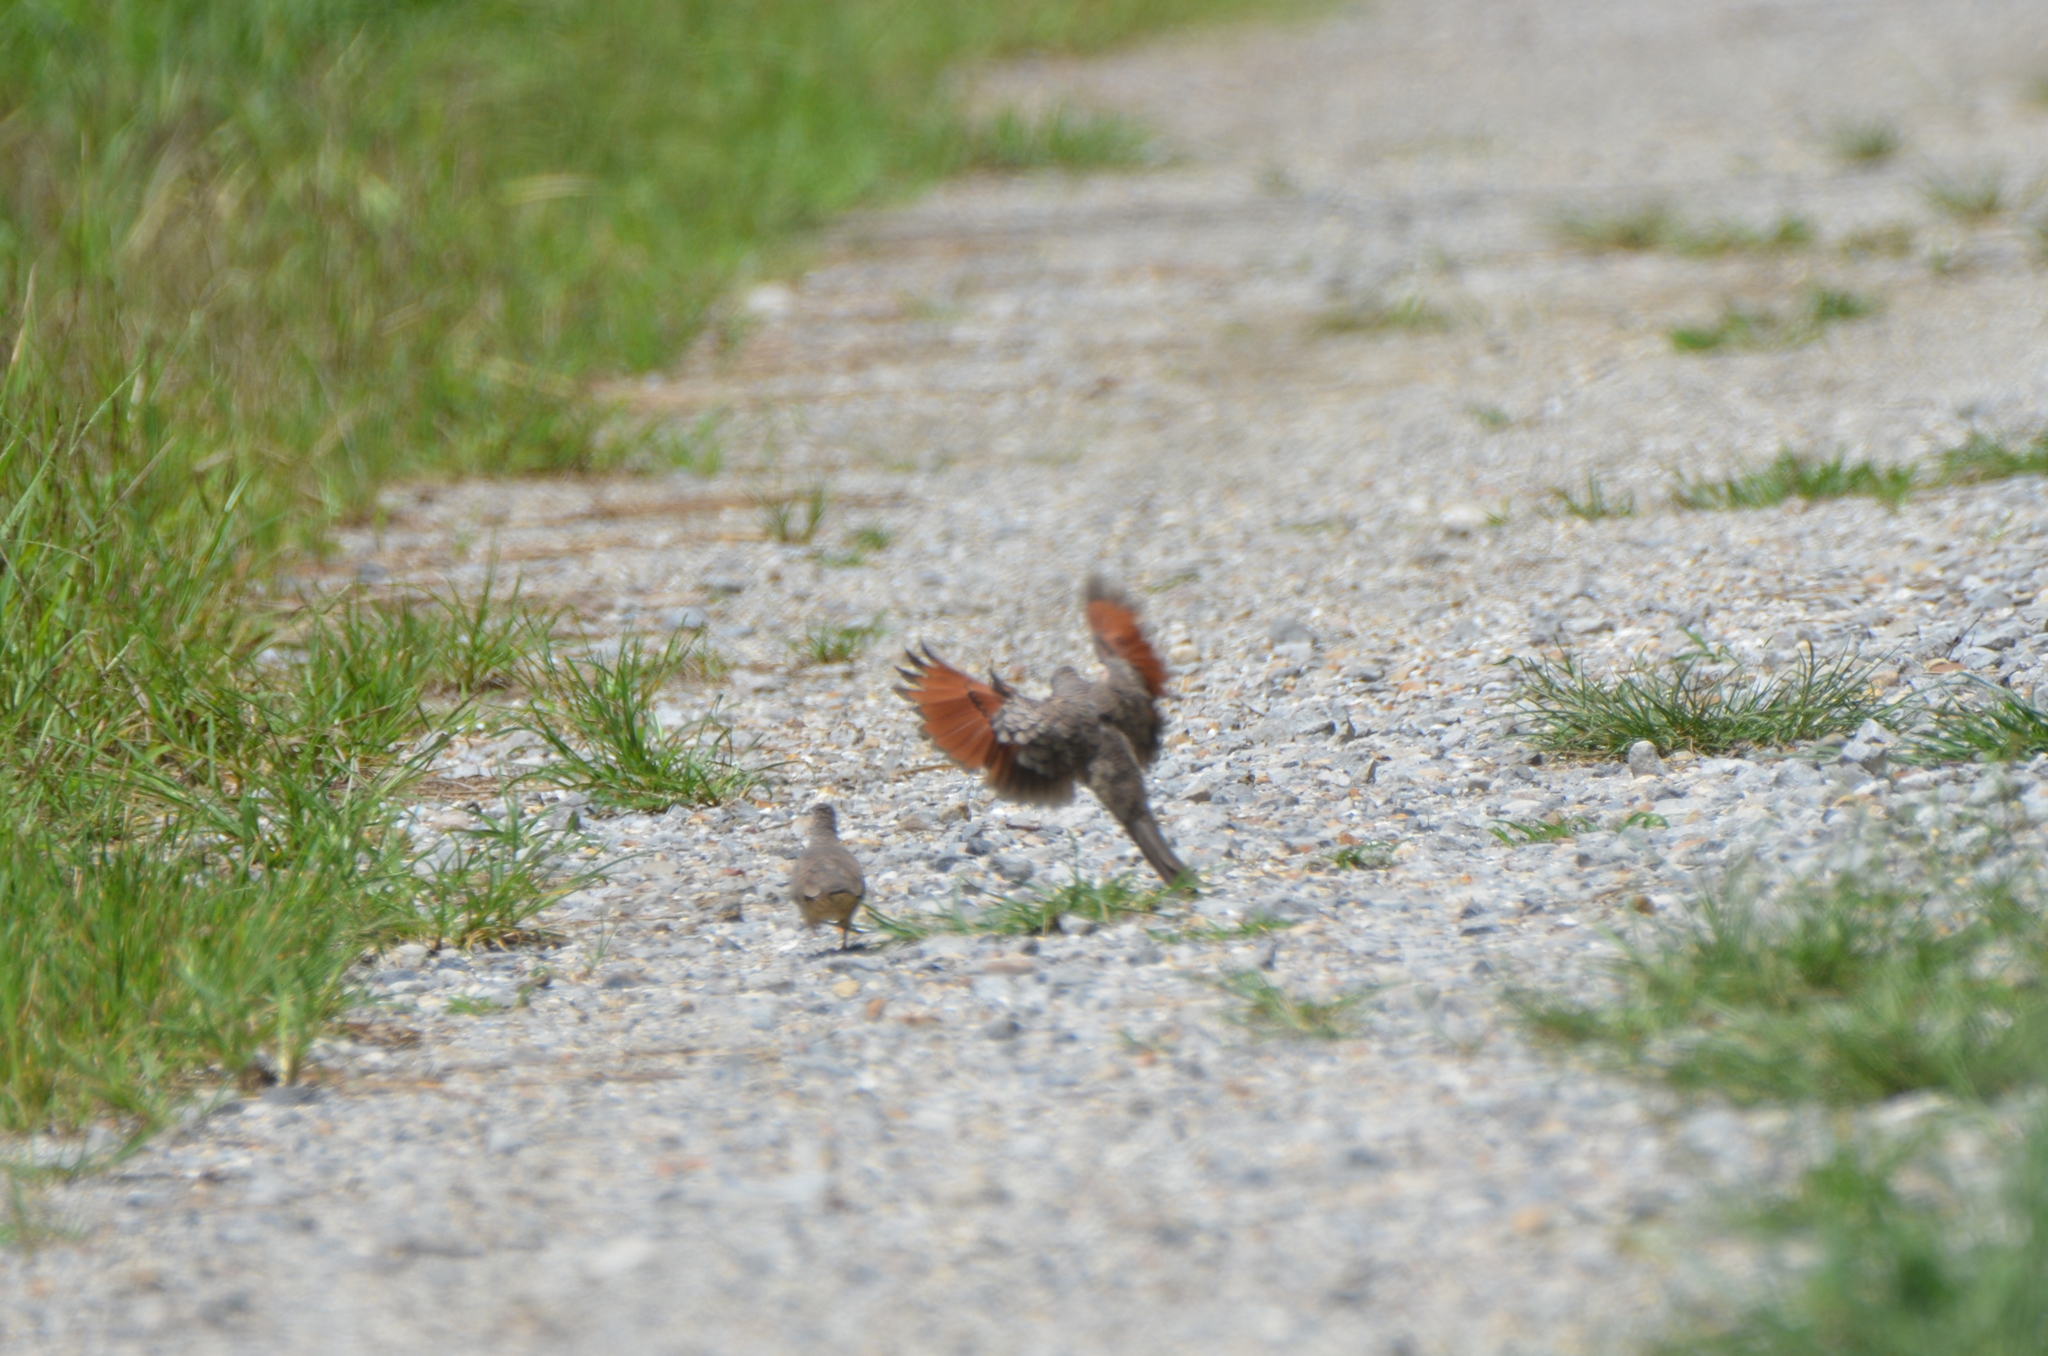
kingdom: Animalia
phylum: Chordata
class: Aves
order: Columbiformes
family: Columbidae
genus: Columbina
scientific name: Columbina inca
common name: Inca dove
